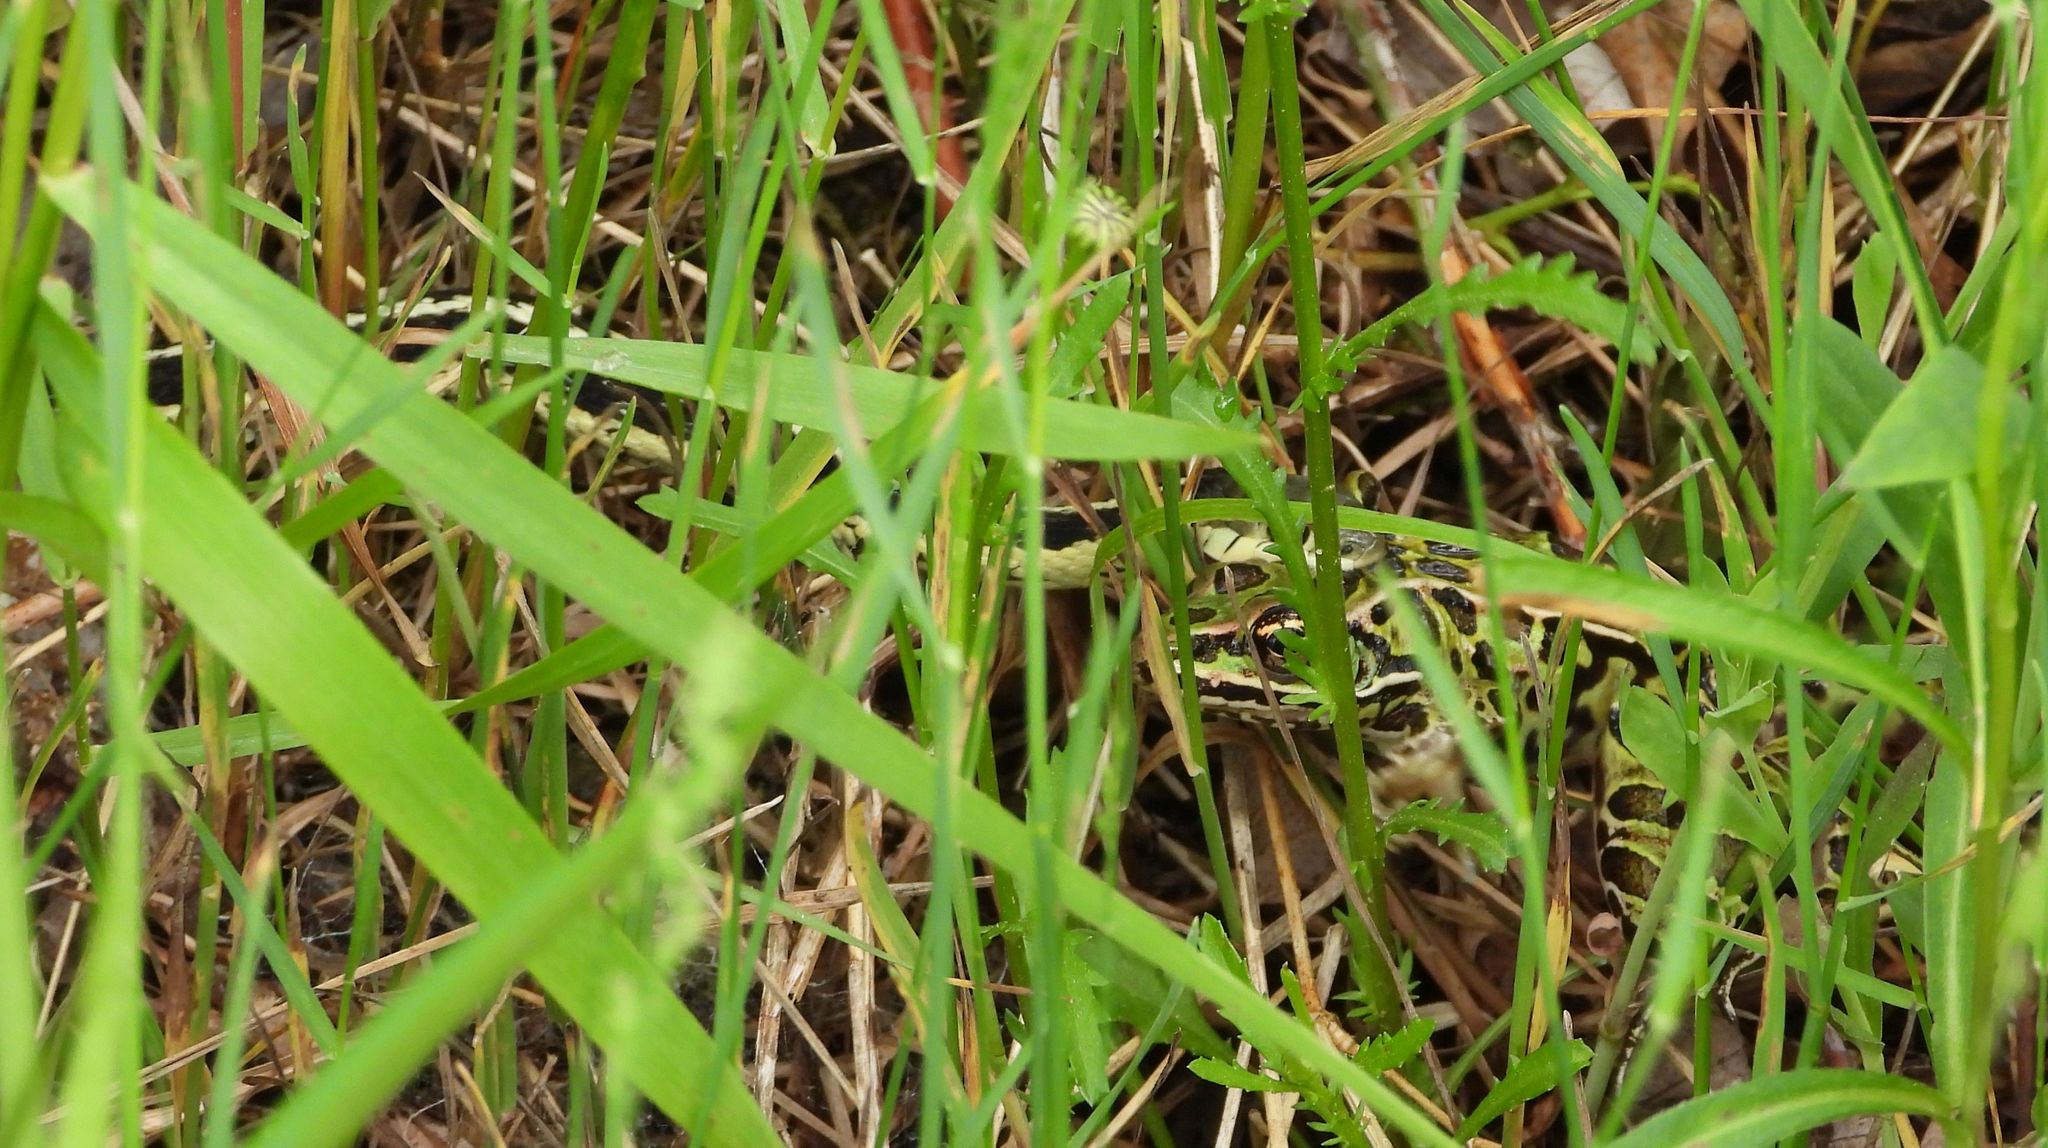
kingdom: Animalia
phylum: Chordata
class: Amphibia
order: Anura
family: Ranidae
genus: Lithobates
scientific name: Lithobates pipiens
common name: Northern leopard frog
